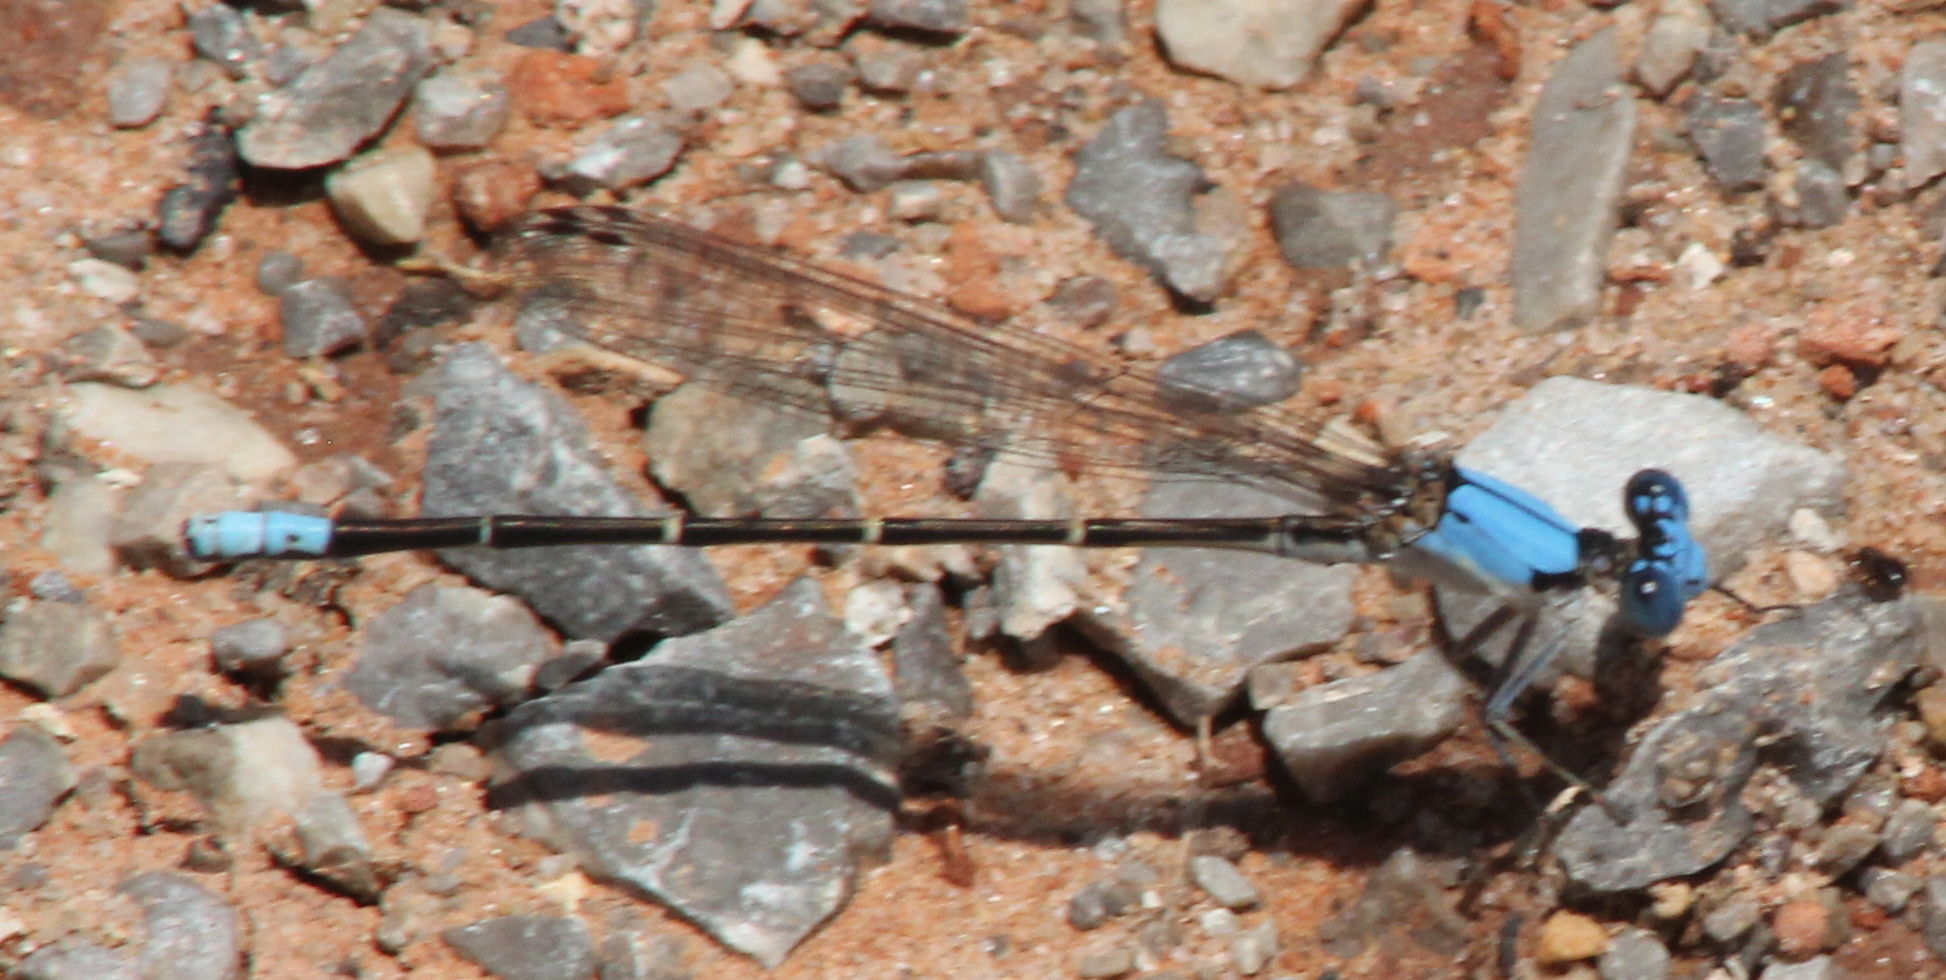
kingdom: Animalia
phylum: Arthropoda
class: Insecta
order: Odonata
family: Coenagrionidae
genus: Argia
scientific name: Argia apicalis
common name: Blue-fronted dancer
